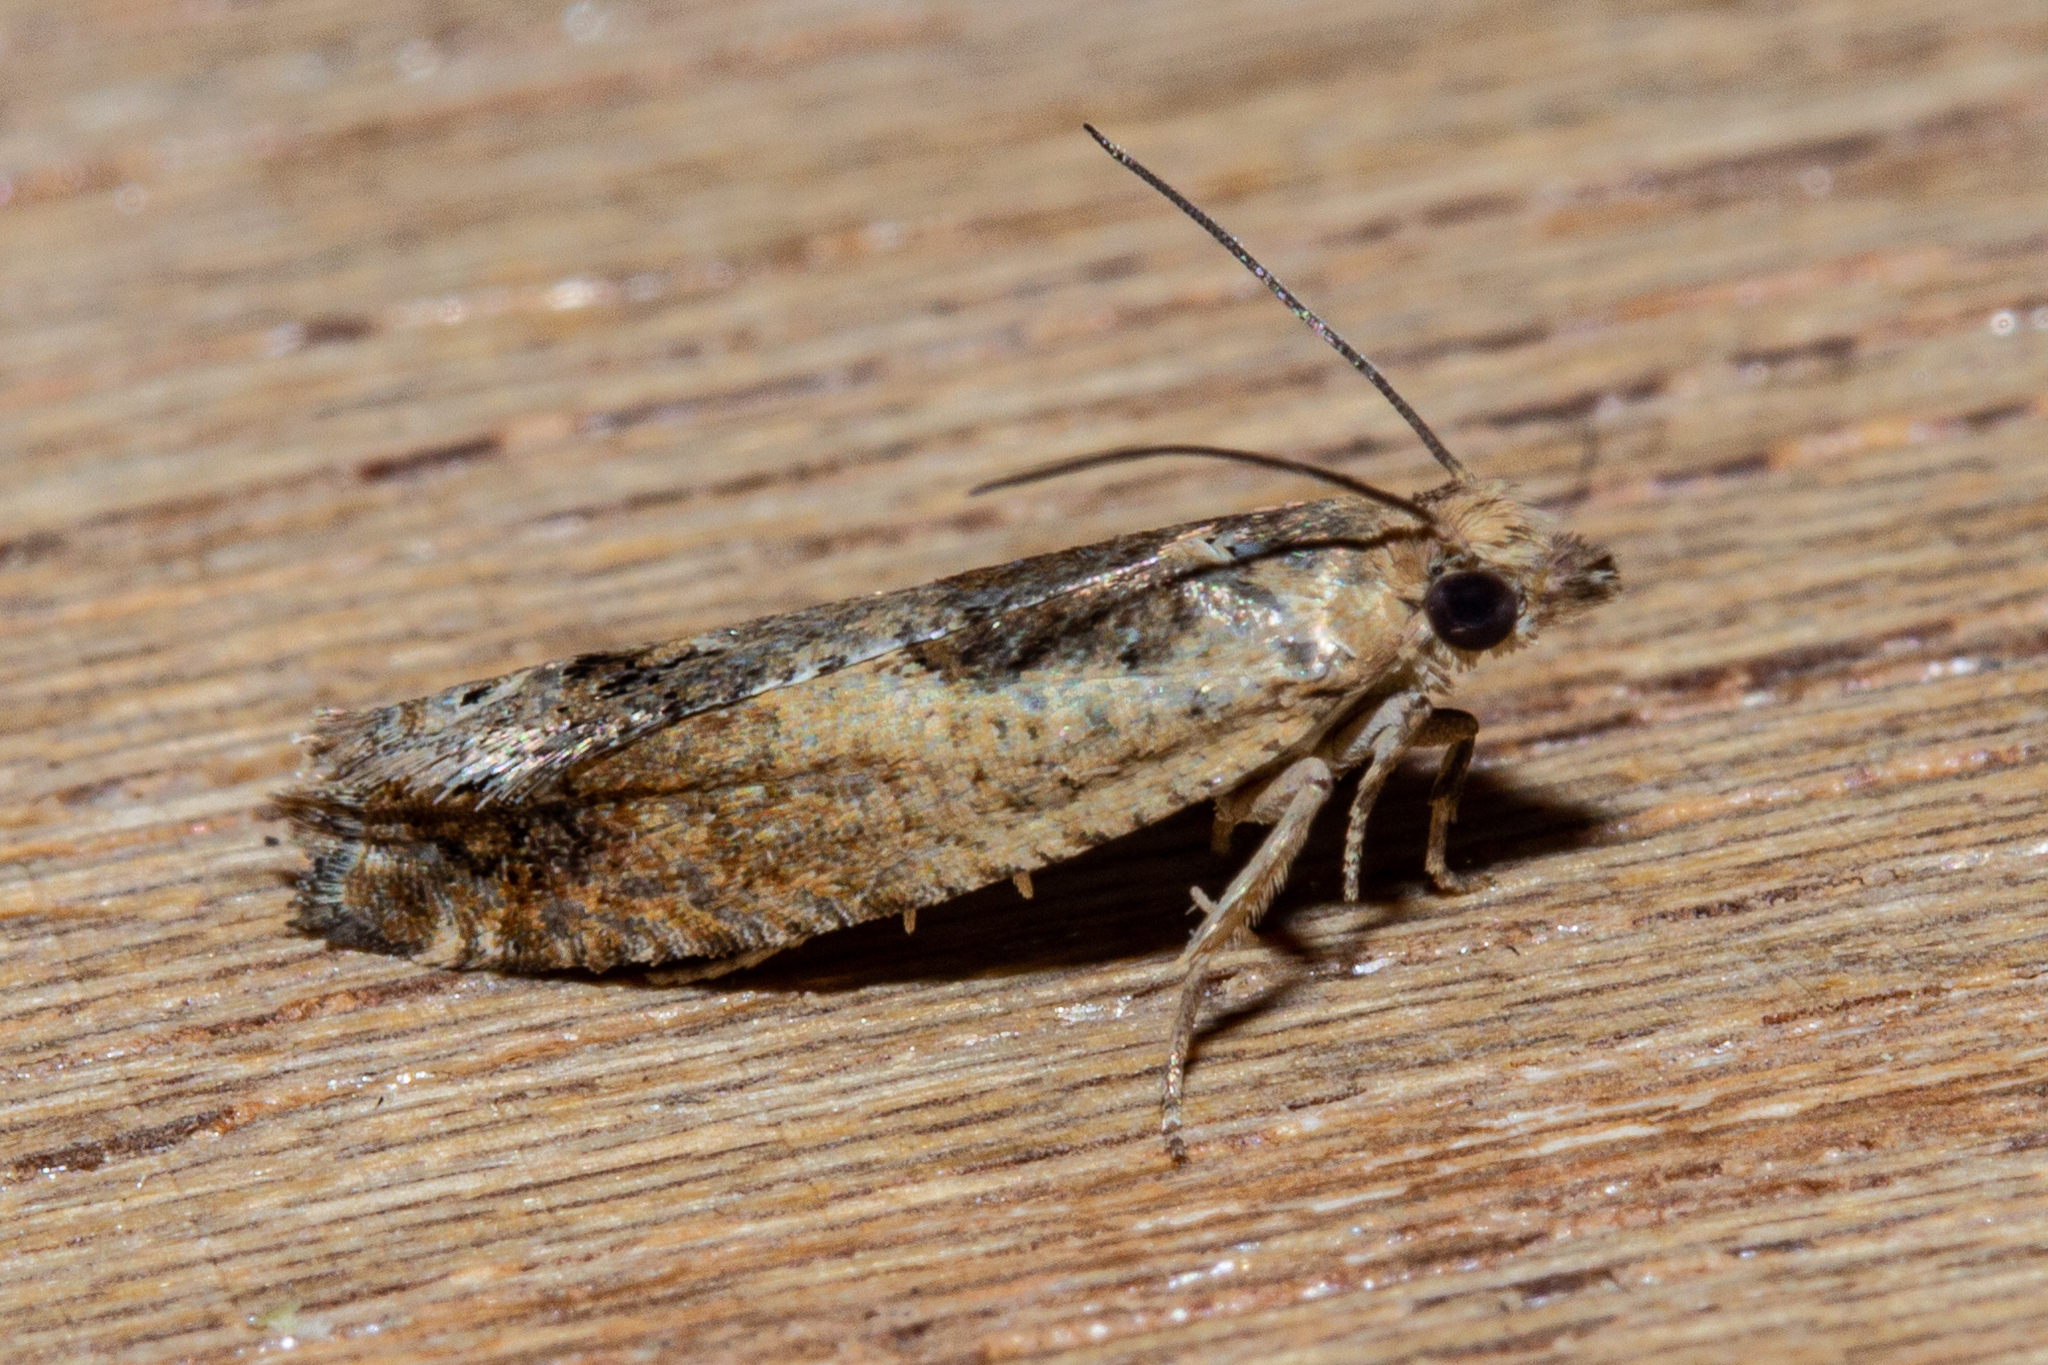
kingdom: Animalia
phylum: Arthropoda
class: Insecta
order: Lepidoptera
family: Tortricidae
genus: Crocidosema
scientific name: Crocidosema plebejana
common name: Southern bell
